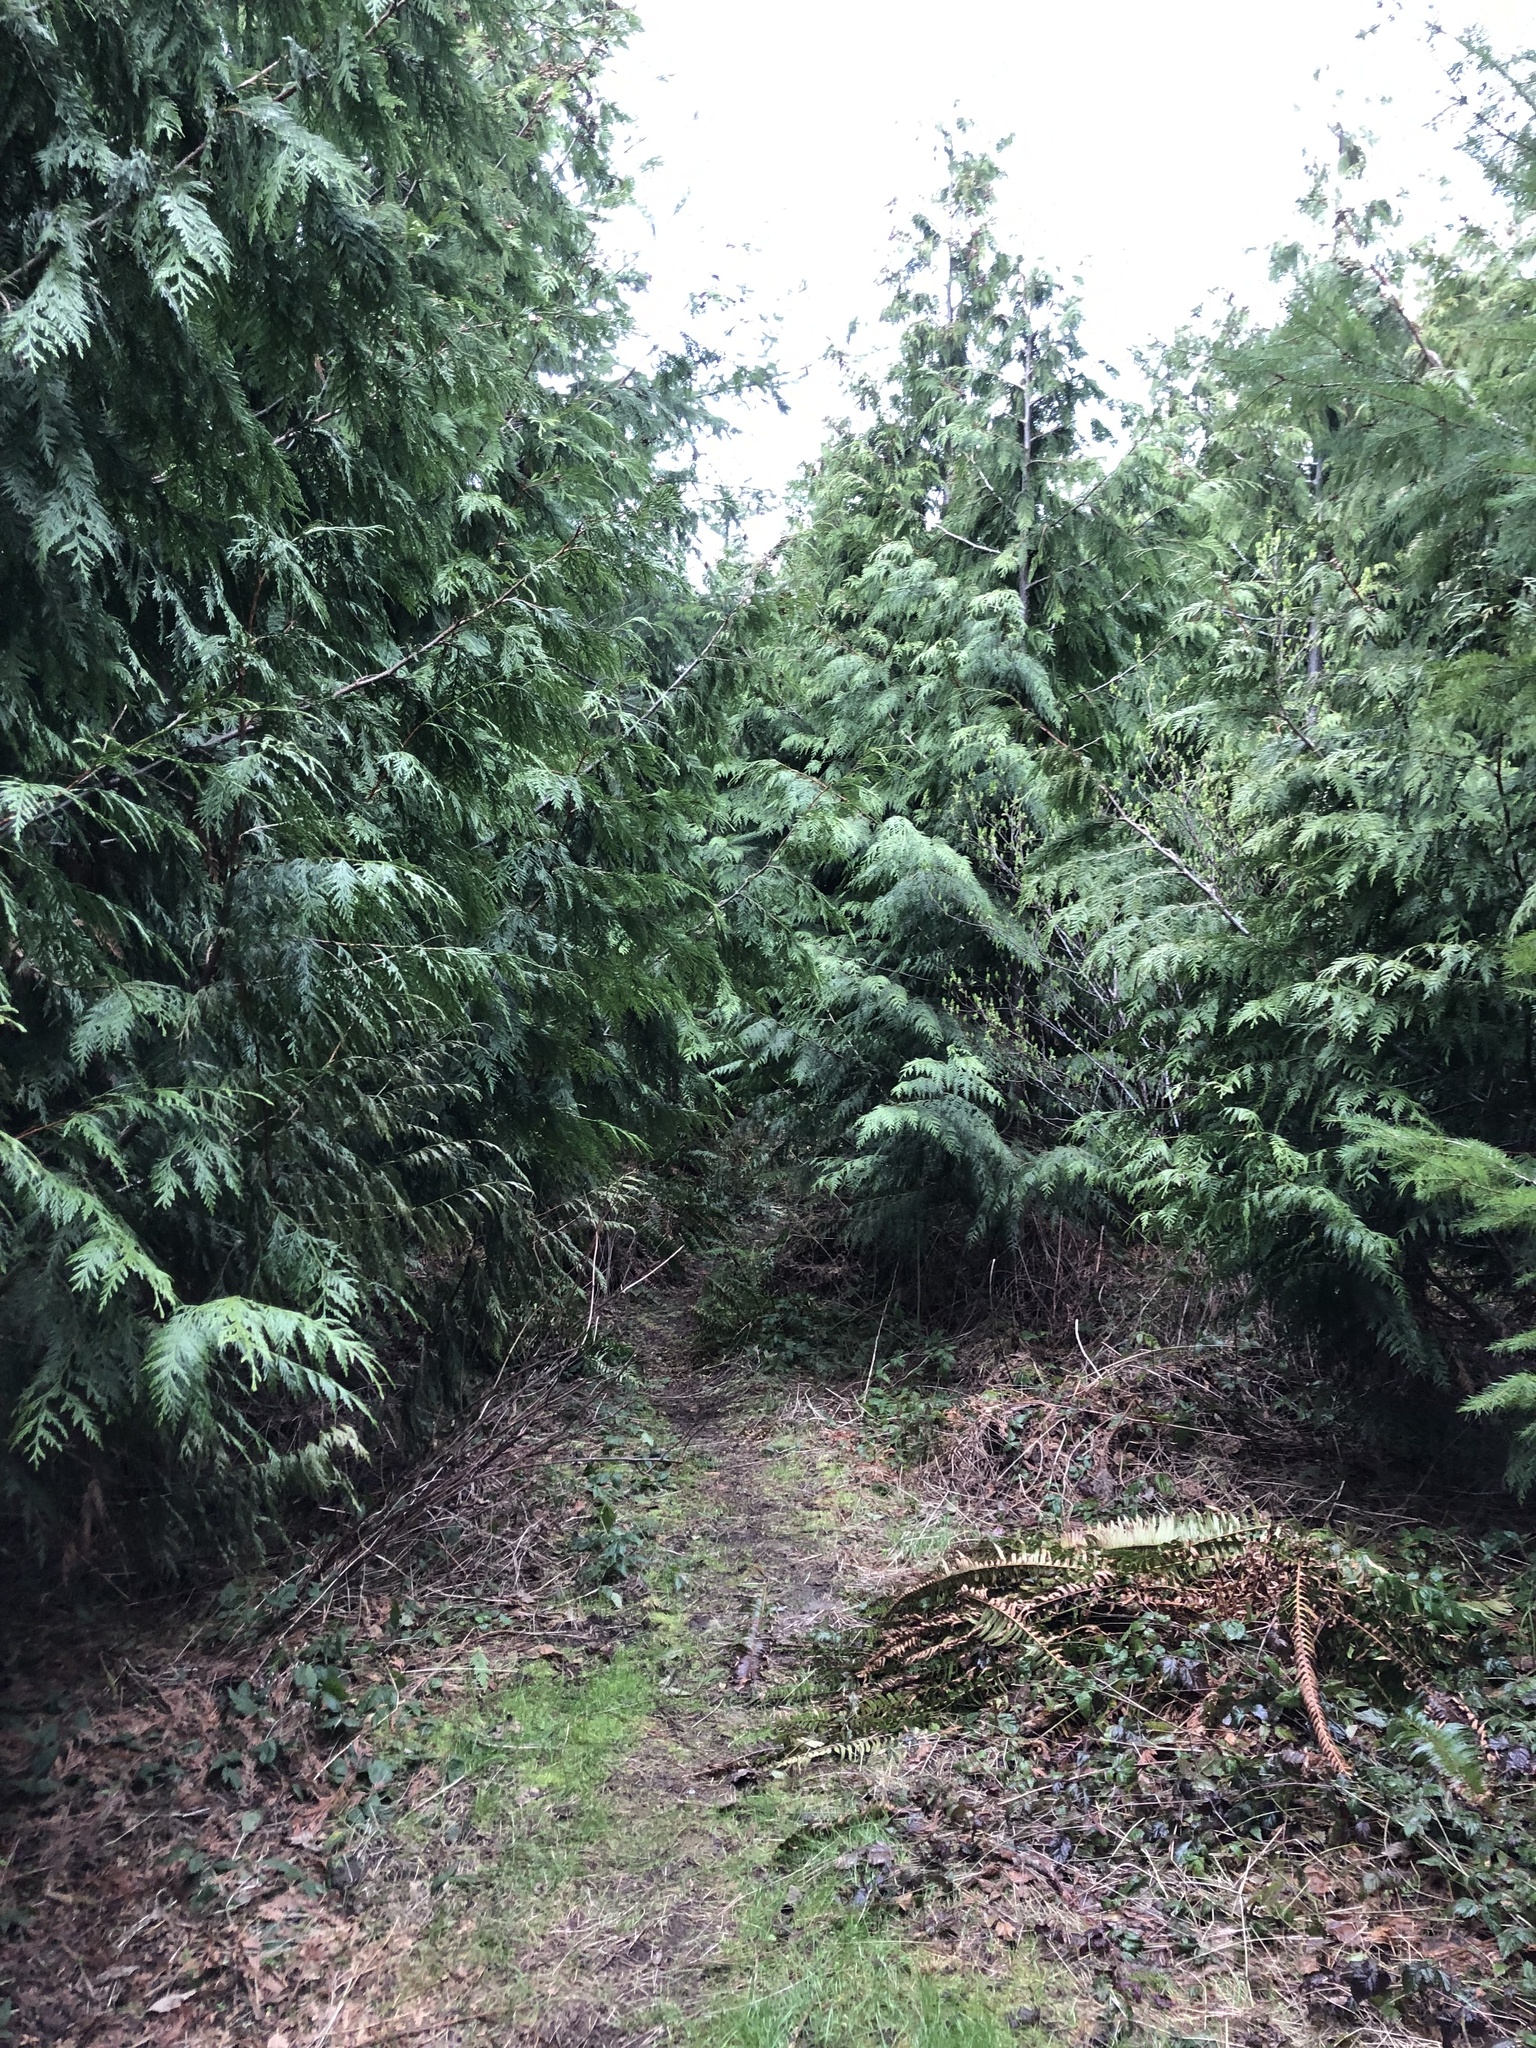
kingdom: Plantae
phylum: Tracheophyta
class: Pinopsida
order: Pinales
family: Cupressaceae
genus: Thuja
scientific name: Thuja plicata
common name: Western red-cedar
